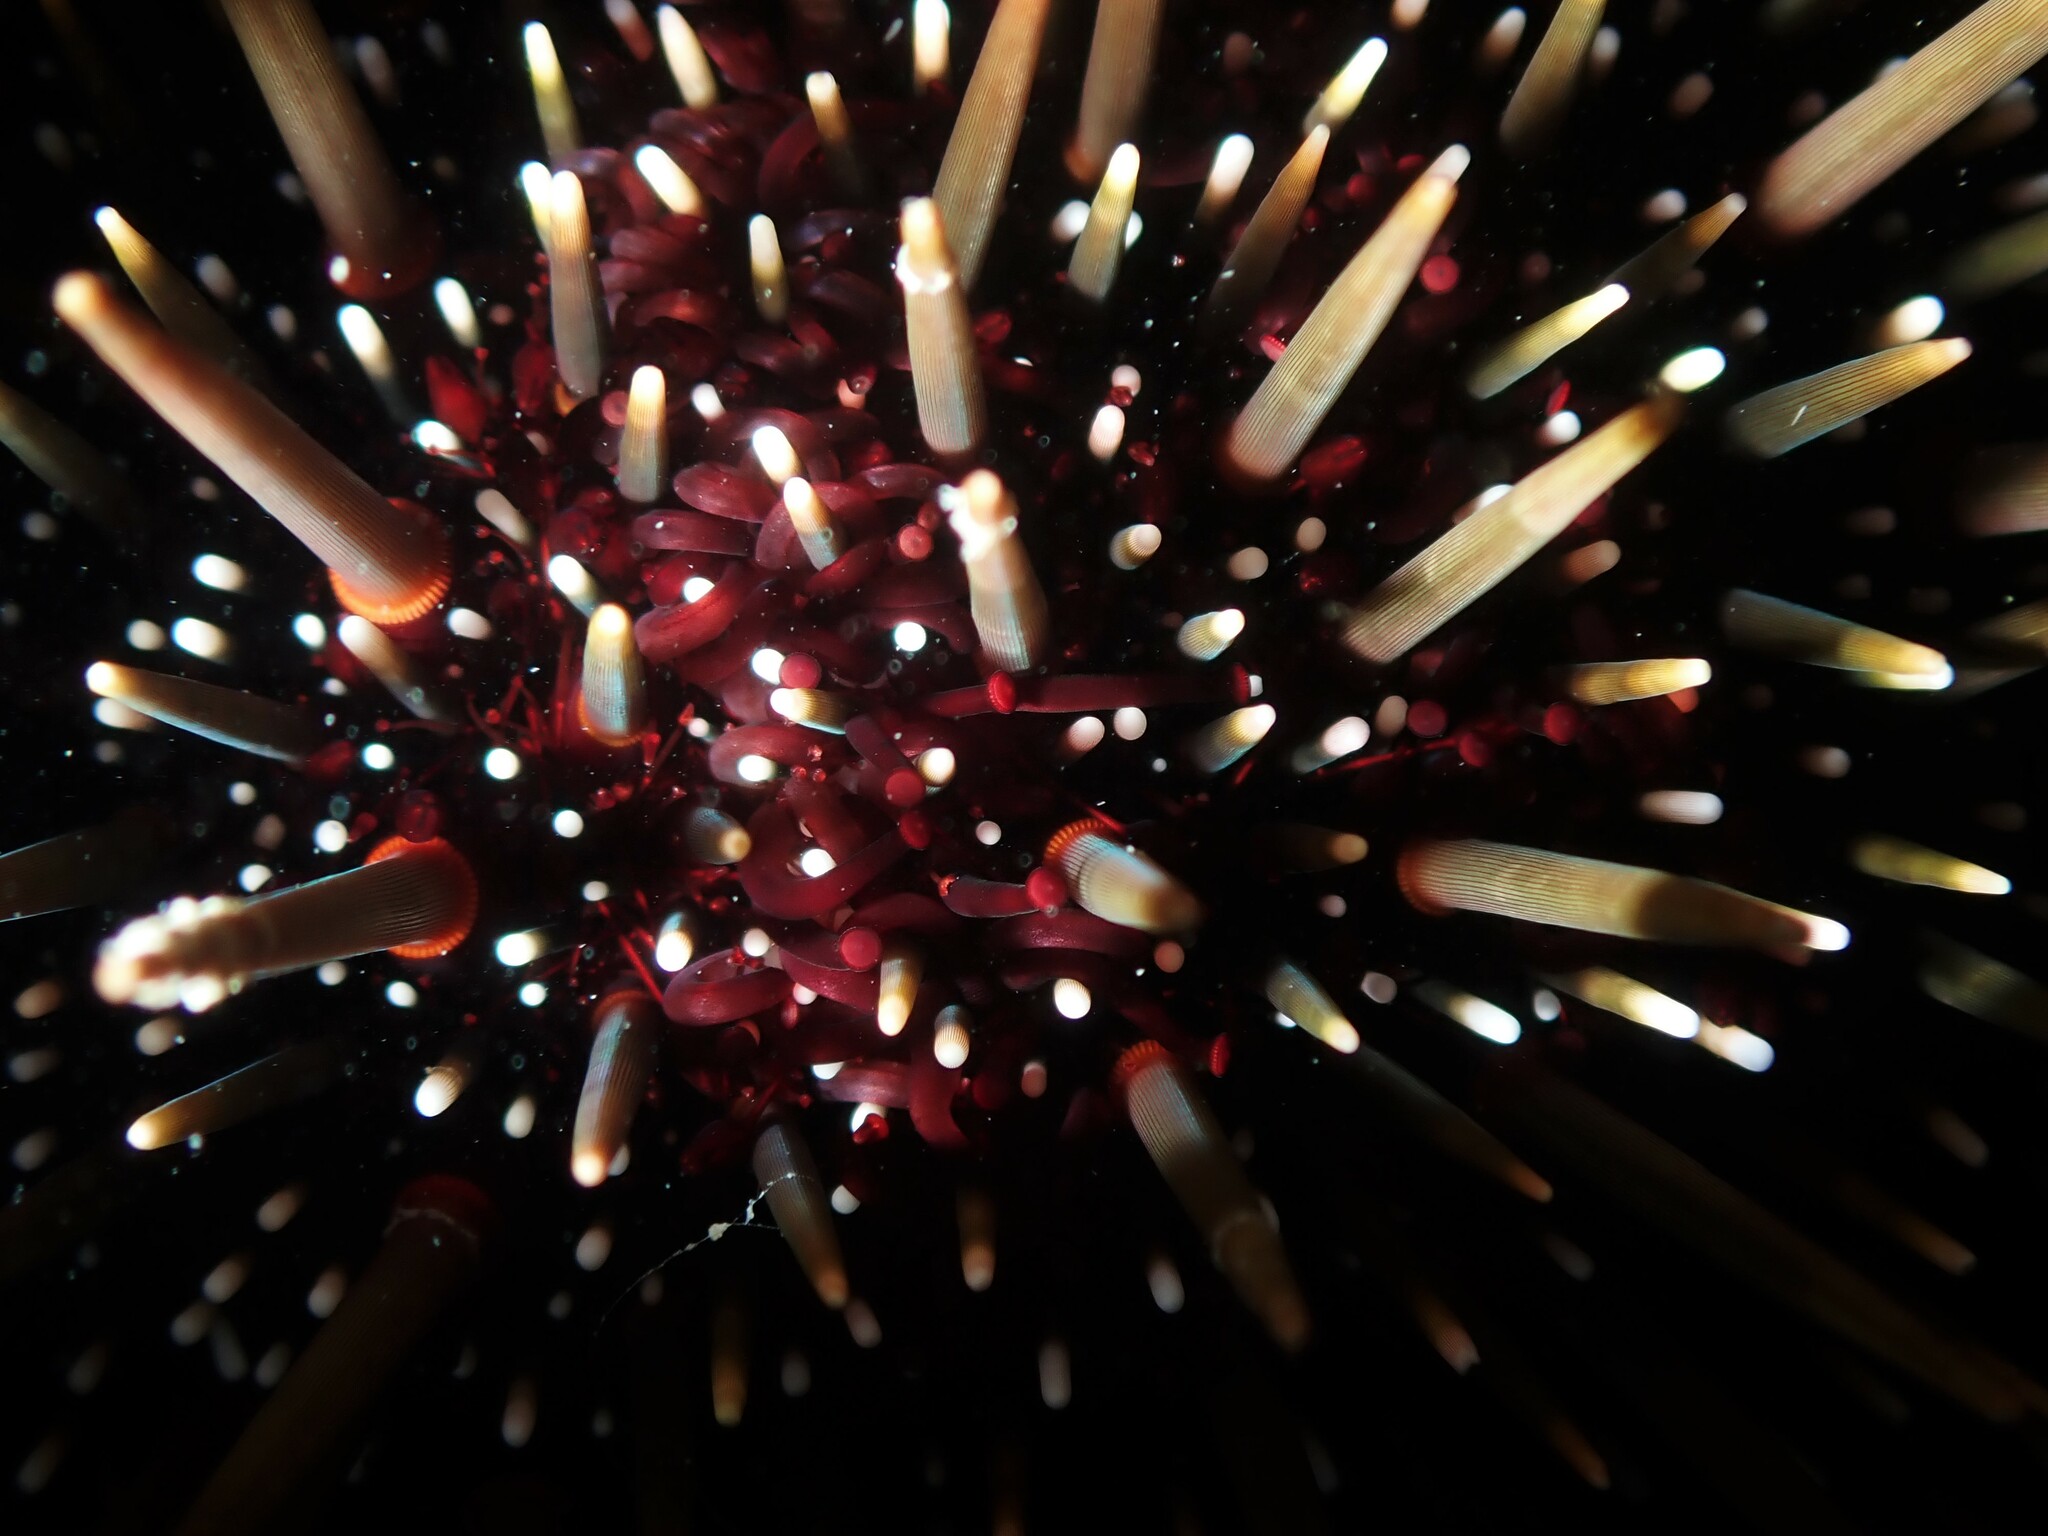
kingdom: Animalia
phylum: Echinodermata
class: Echinoidea
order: Camarodonta
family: Echinometridae
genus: Evechinus
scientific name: Evechinus chloroticus
